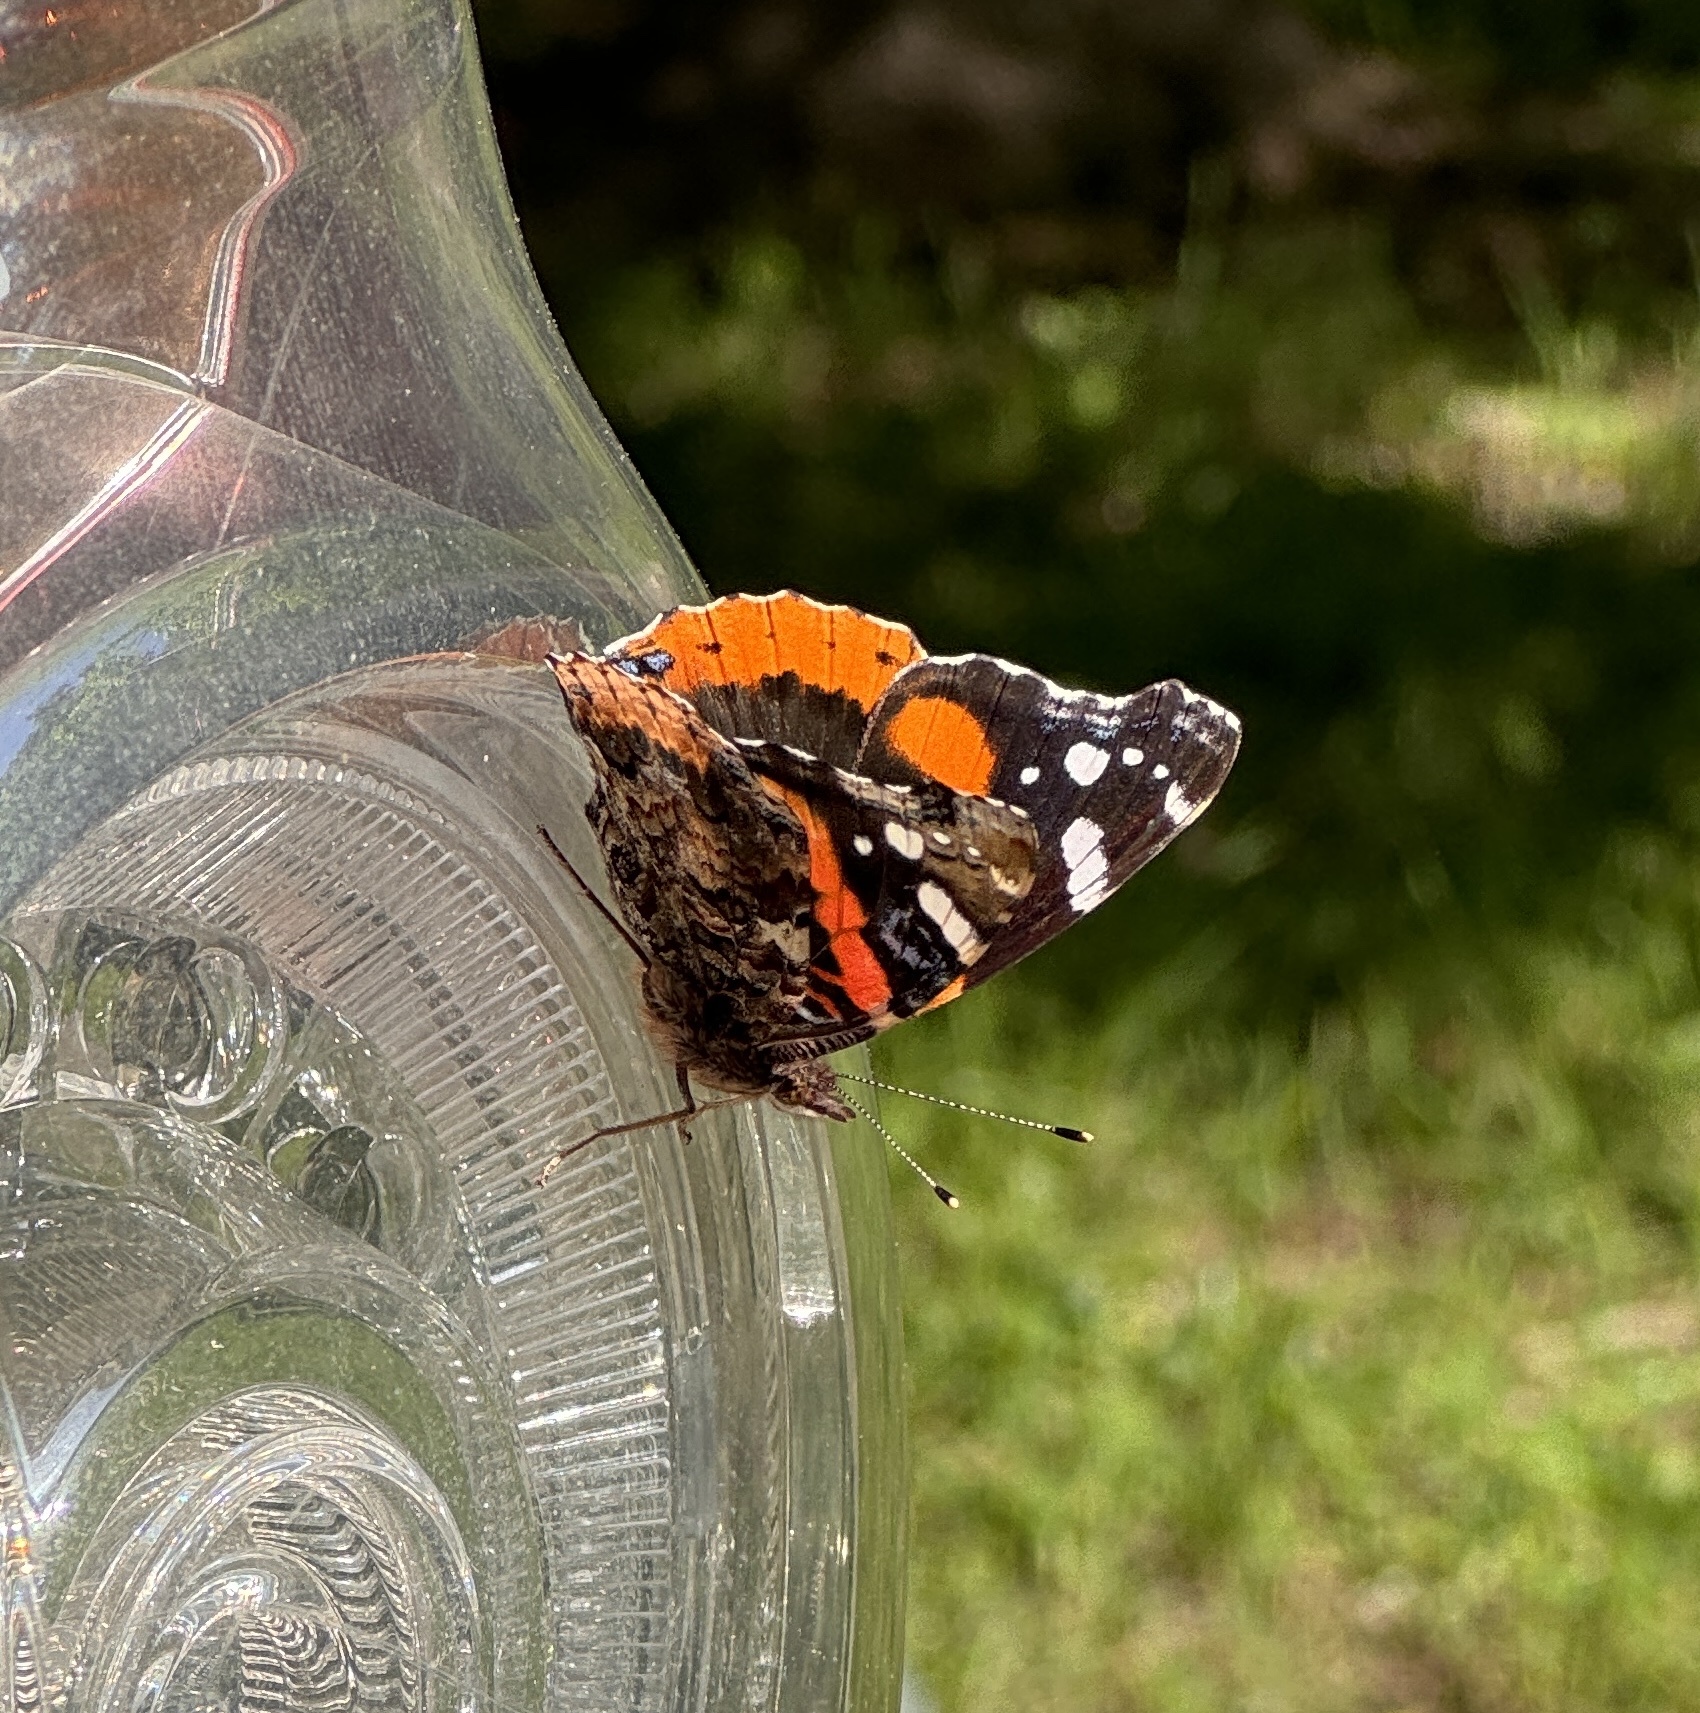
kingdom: Animalia
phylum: Arthropoda
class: Insecta
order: Lepidoptera
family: Nymphalidae
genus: Vanessa
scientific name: Vanessa atalanta
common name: Red admiral
